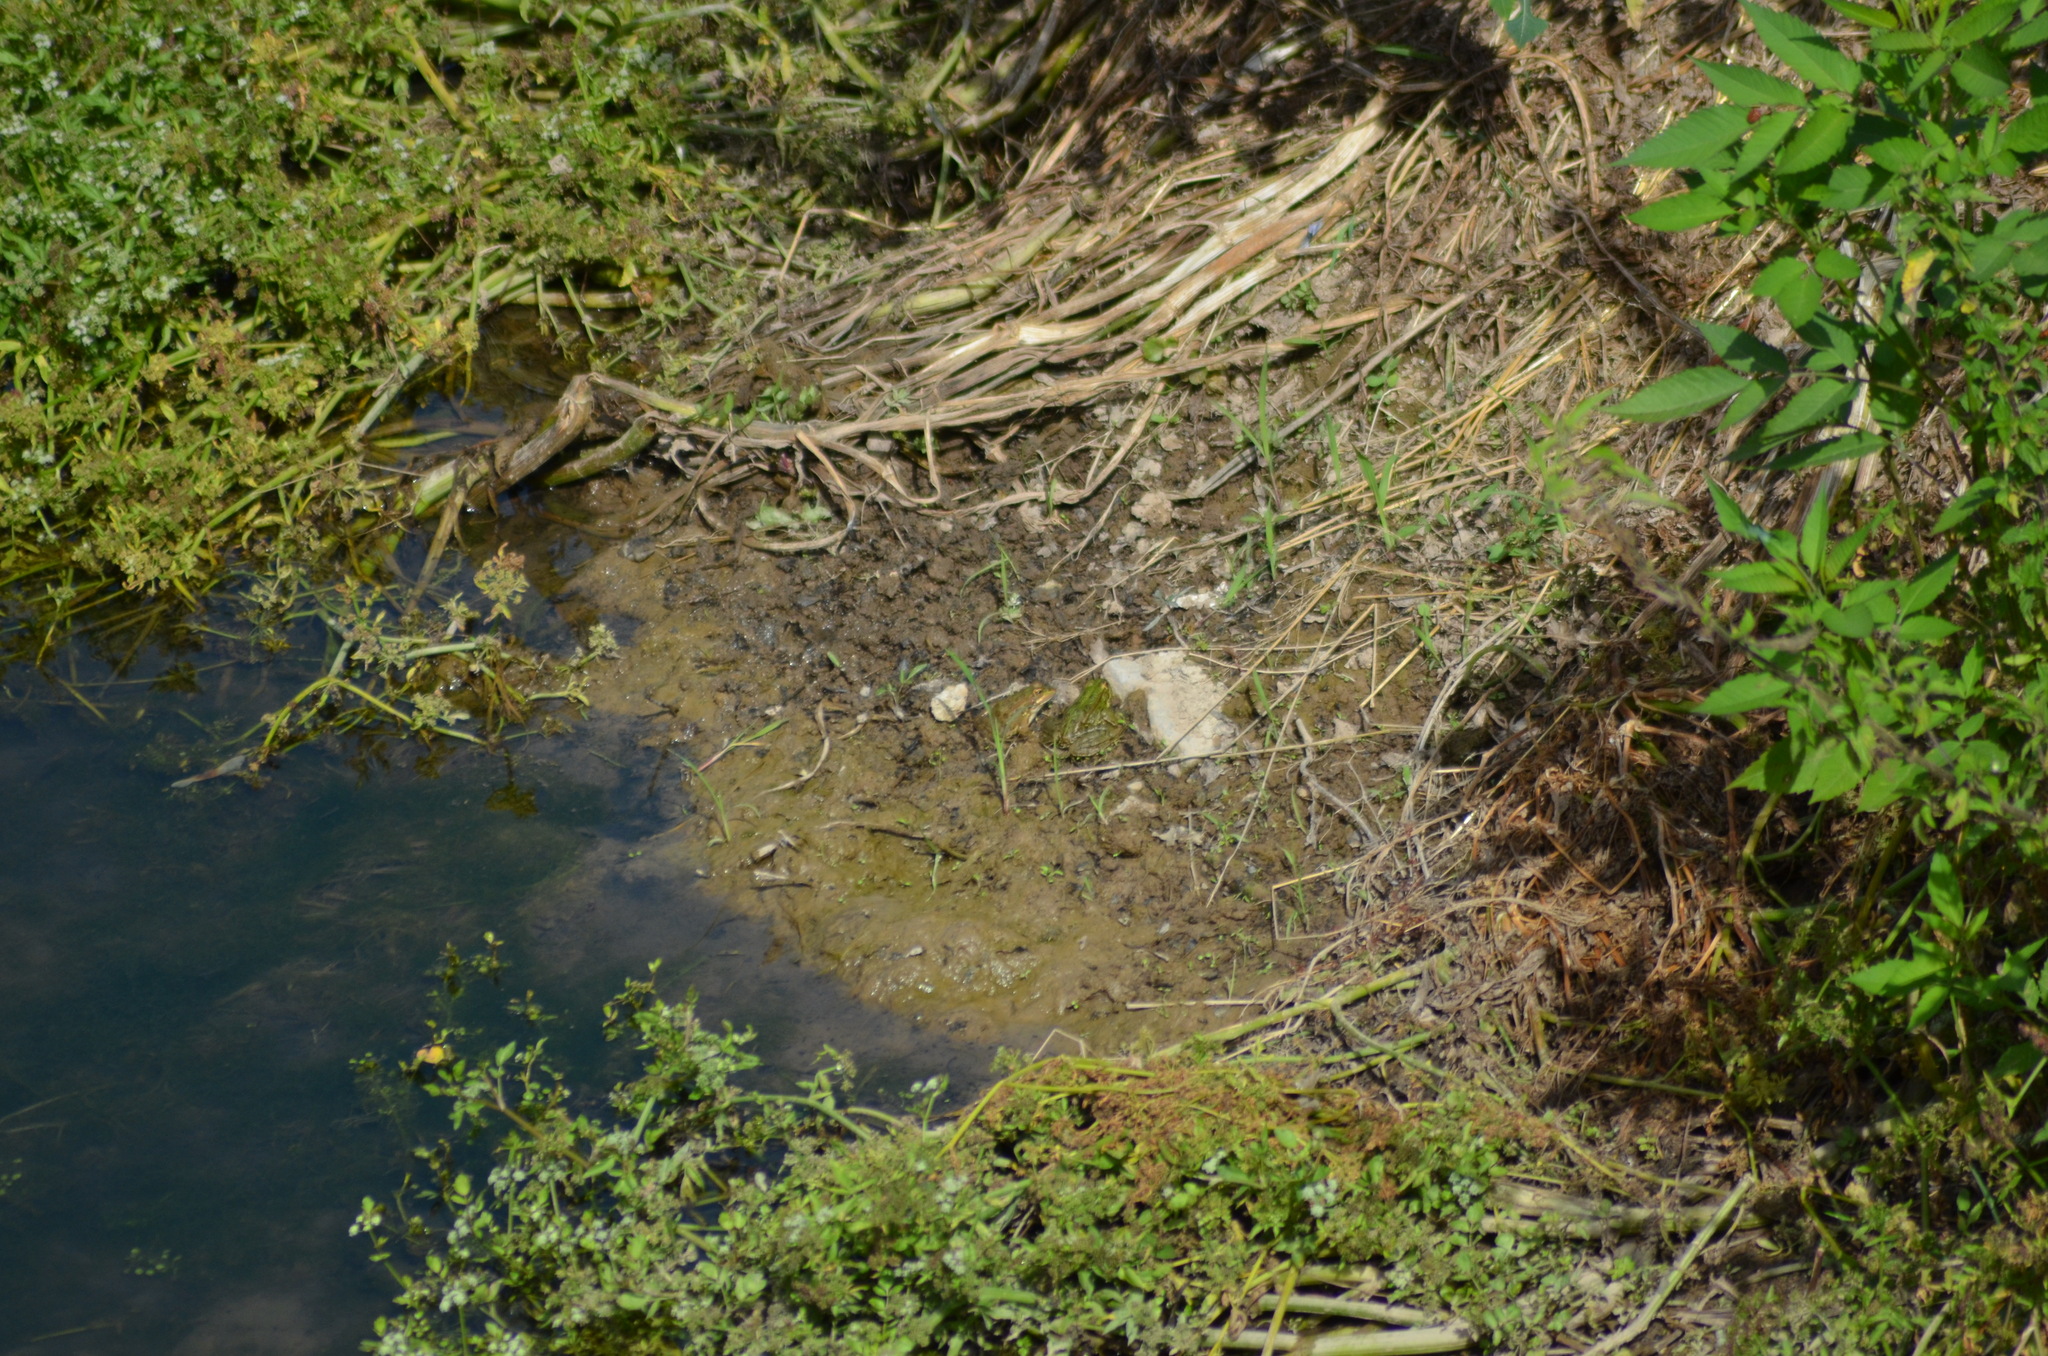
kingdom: Animalia
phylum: Chordata
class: Amphibia
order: Anura
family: Ranidae
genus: Pelophylax
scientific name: Pelophylax perezi
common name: Perez's frog
